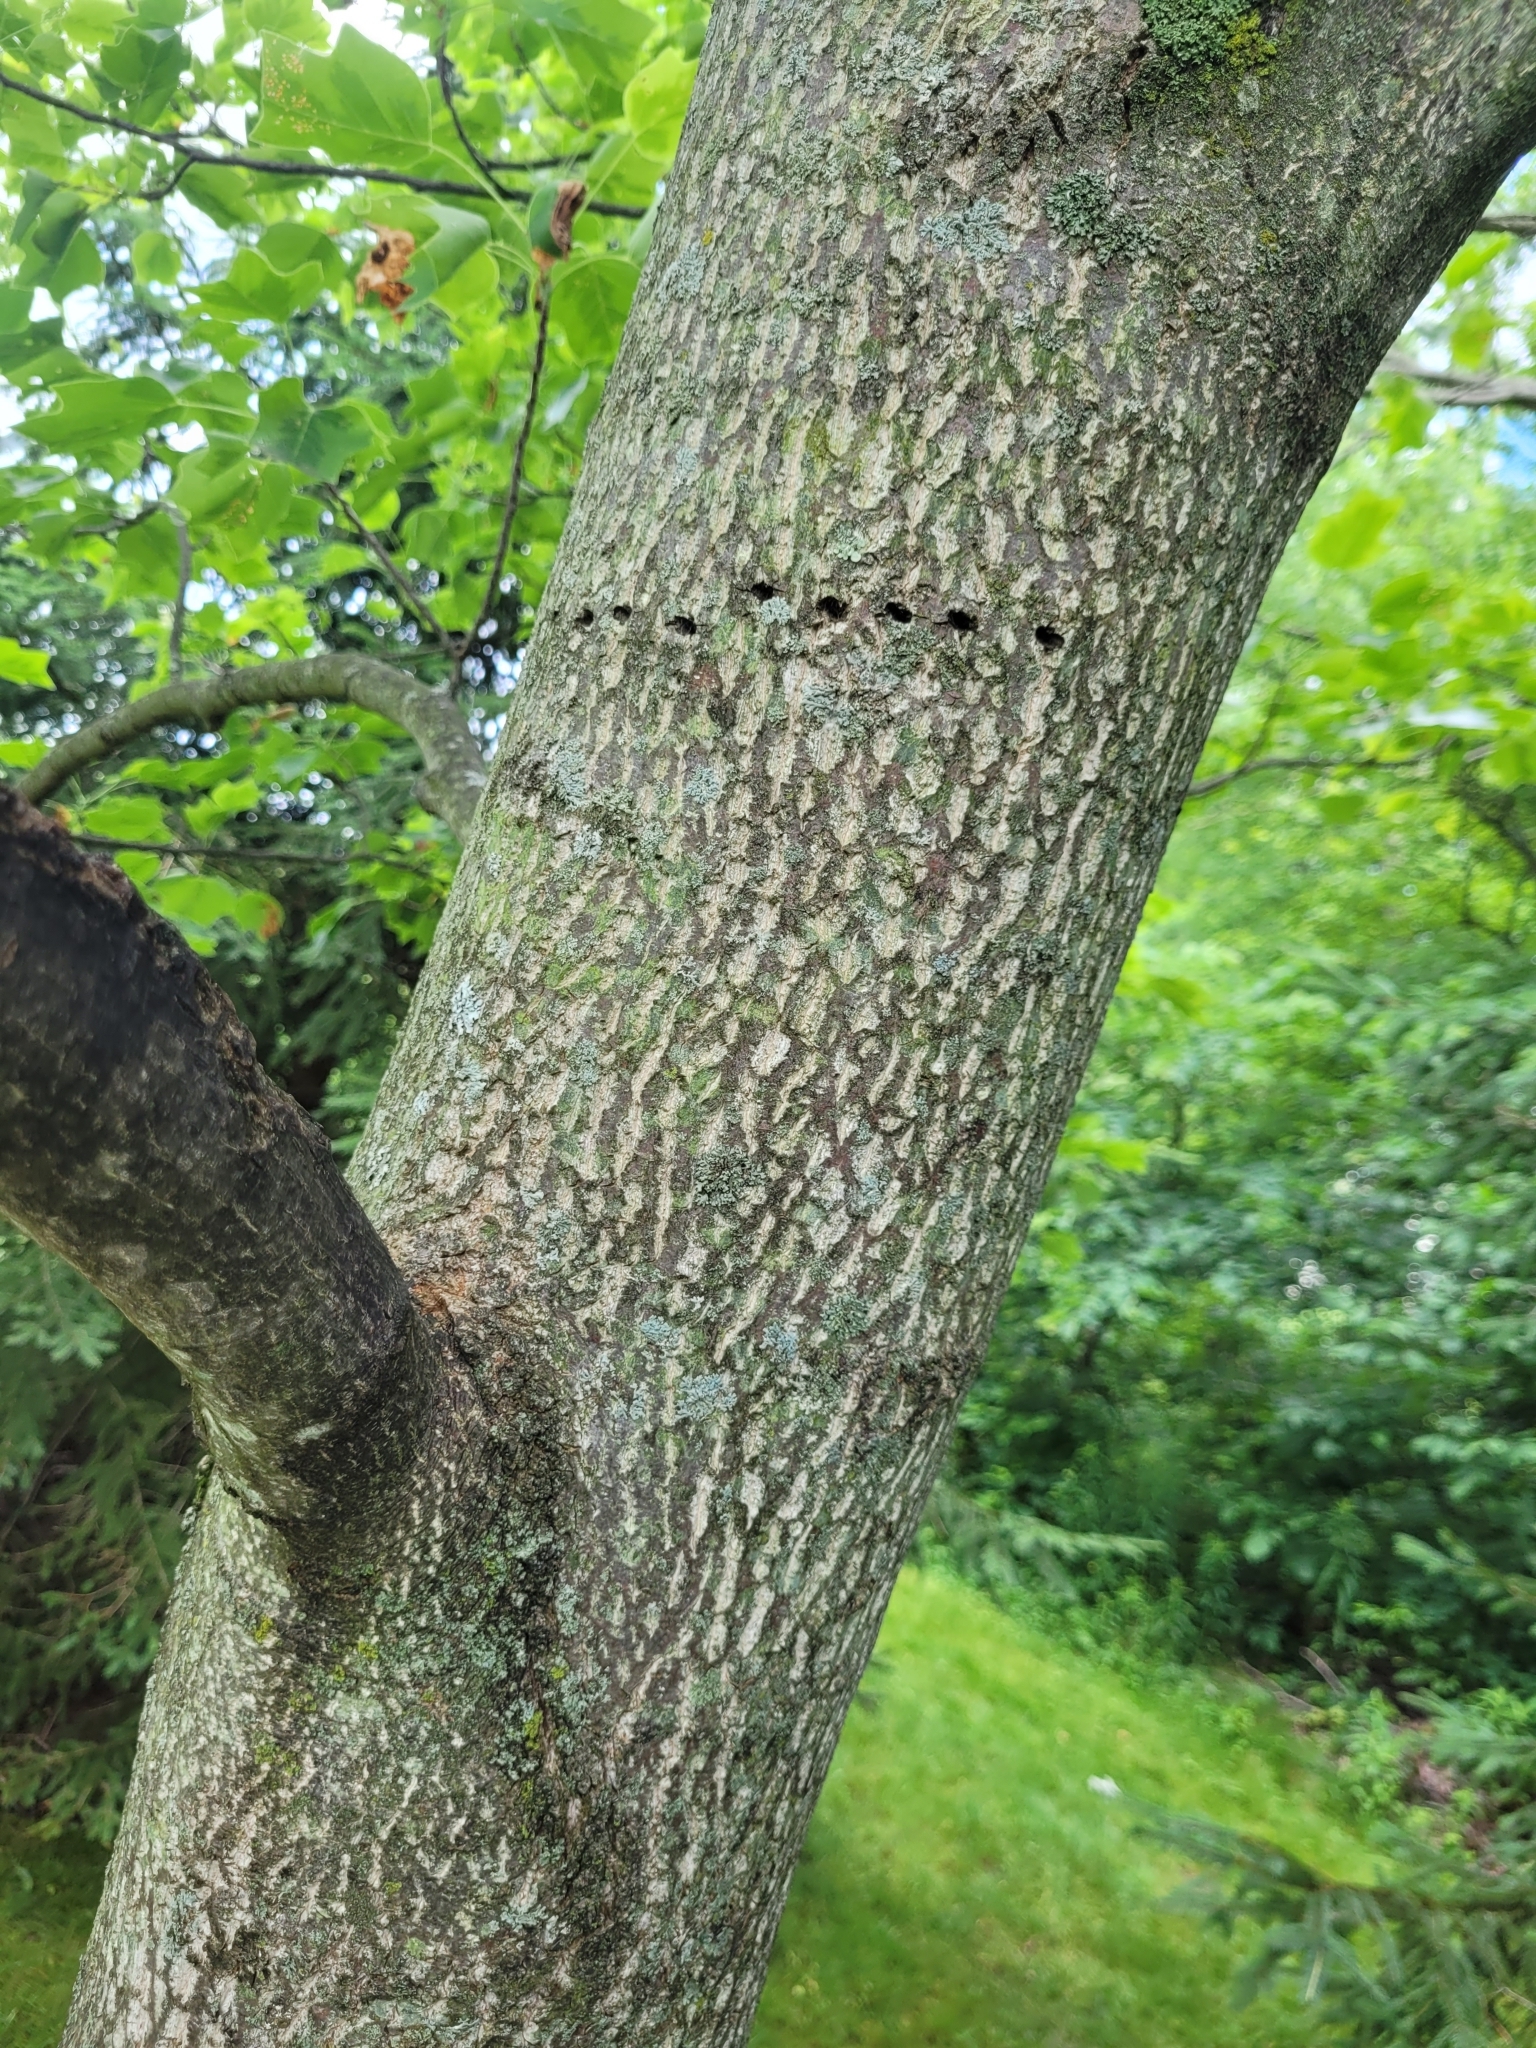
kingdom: Animalia
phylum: Chordata
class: Aves
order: Piciformes
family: Picidae
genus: Sphyrapicus
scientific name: Sphyrapicus varius
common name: Yellow-bellied sapsucker
